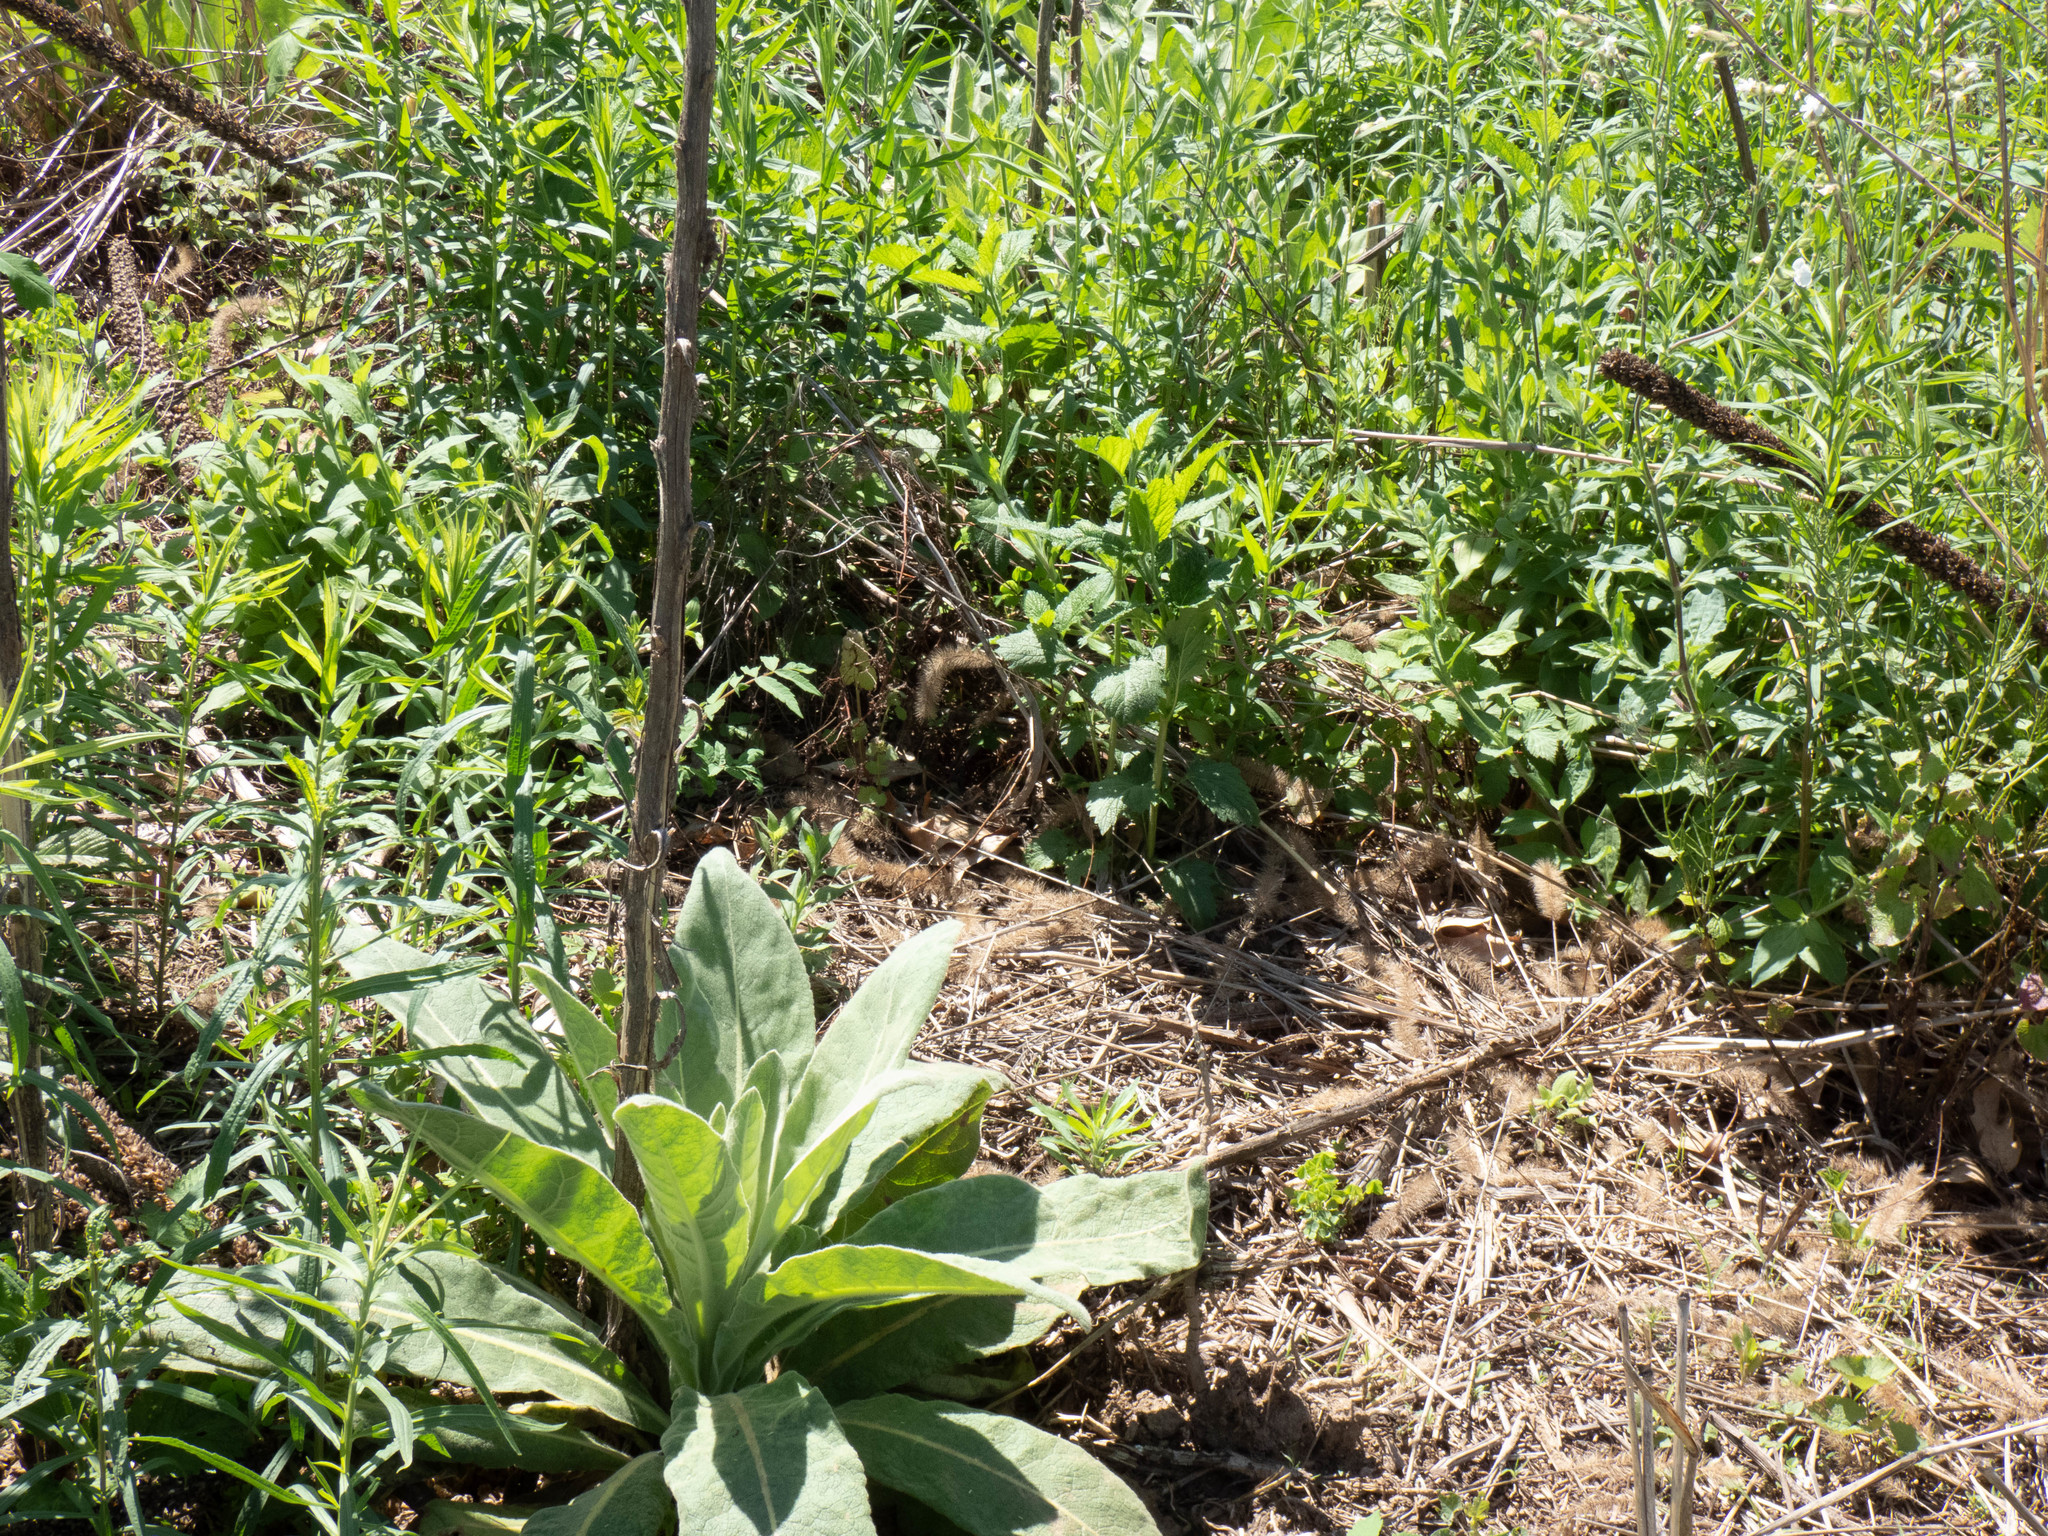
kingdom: Plantae
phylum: Tracheophyta
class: Magnoliopsida
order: Lamiales
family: Scrophulariaceae
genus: Verbascum
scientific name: Verbascum thapsus
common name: Common mullein
